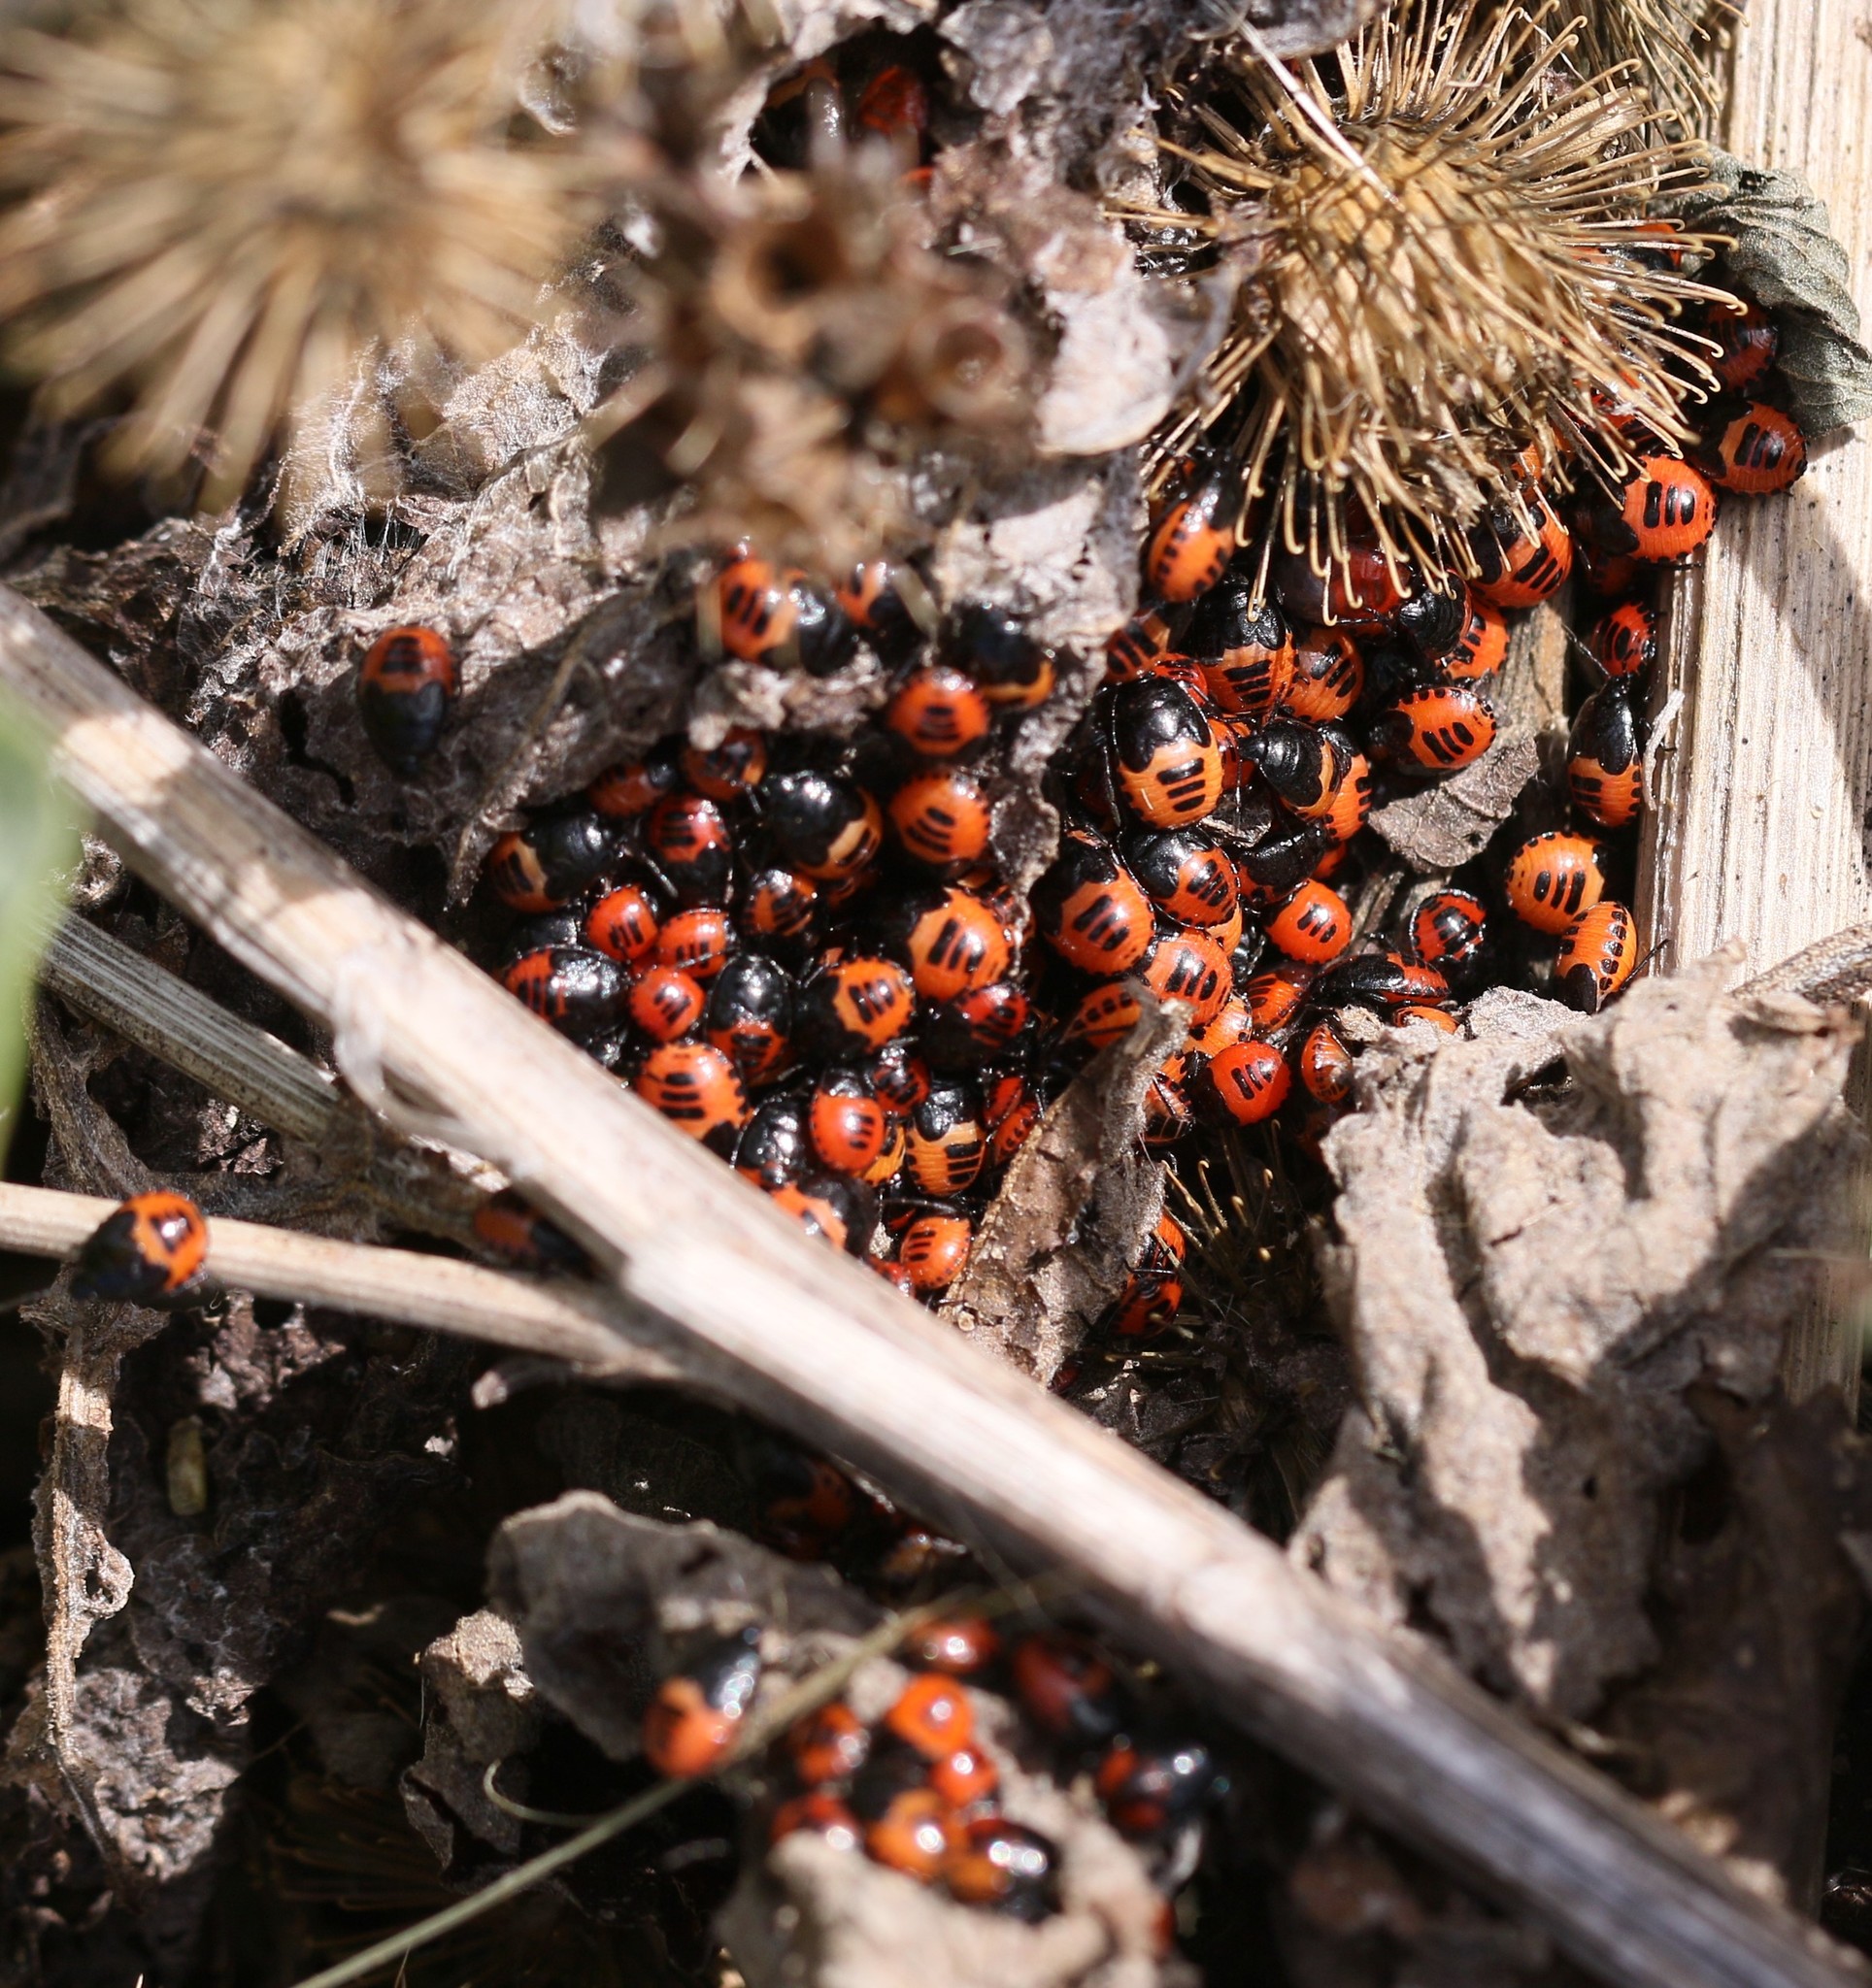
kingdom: Animalia
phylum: Arthropoda
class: Insecta
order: Hemiptera
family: Cydnidae
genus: Sehirus
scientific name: Sehirus cinctus
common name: White-margined burrower bug
